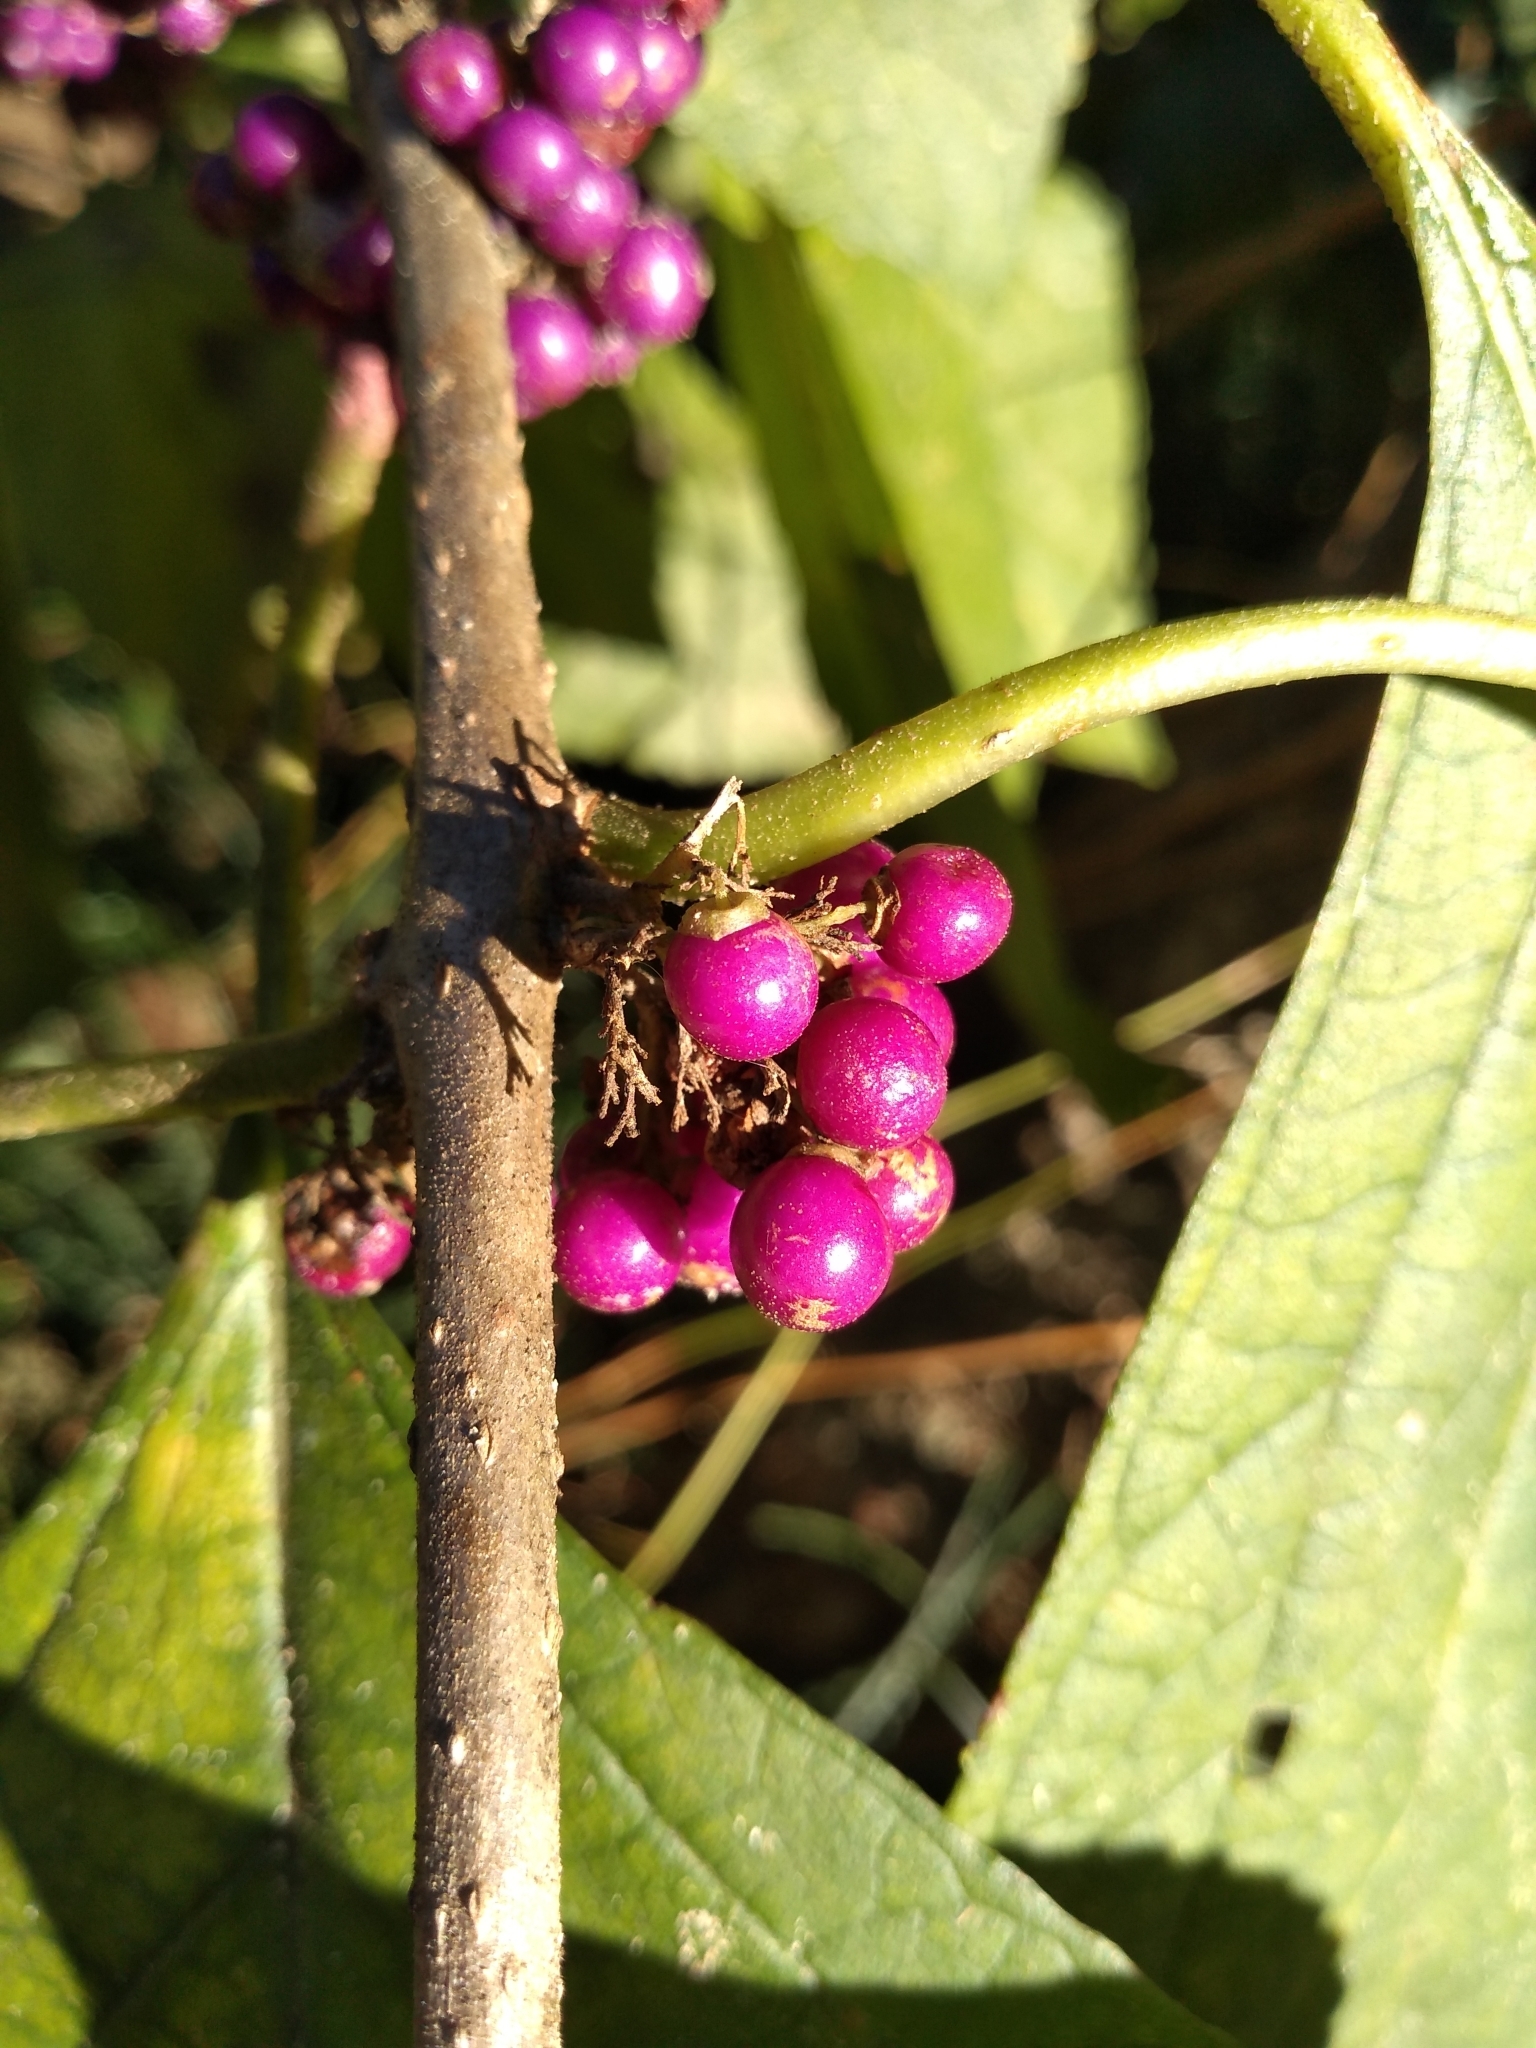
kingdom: Plantae
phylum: Tracheophyta
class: Magnoliopsida
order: Lamiales
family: Lamiaceae
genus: Callicarpa
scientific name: Callicarpa americana
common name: American beautyberry
